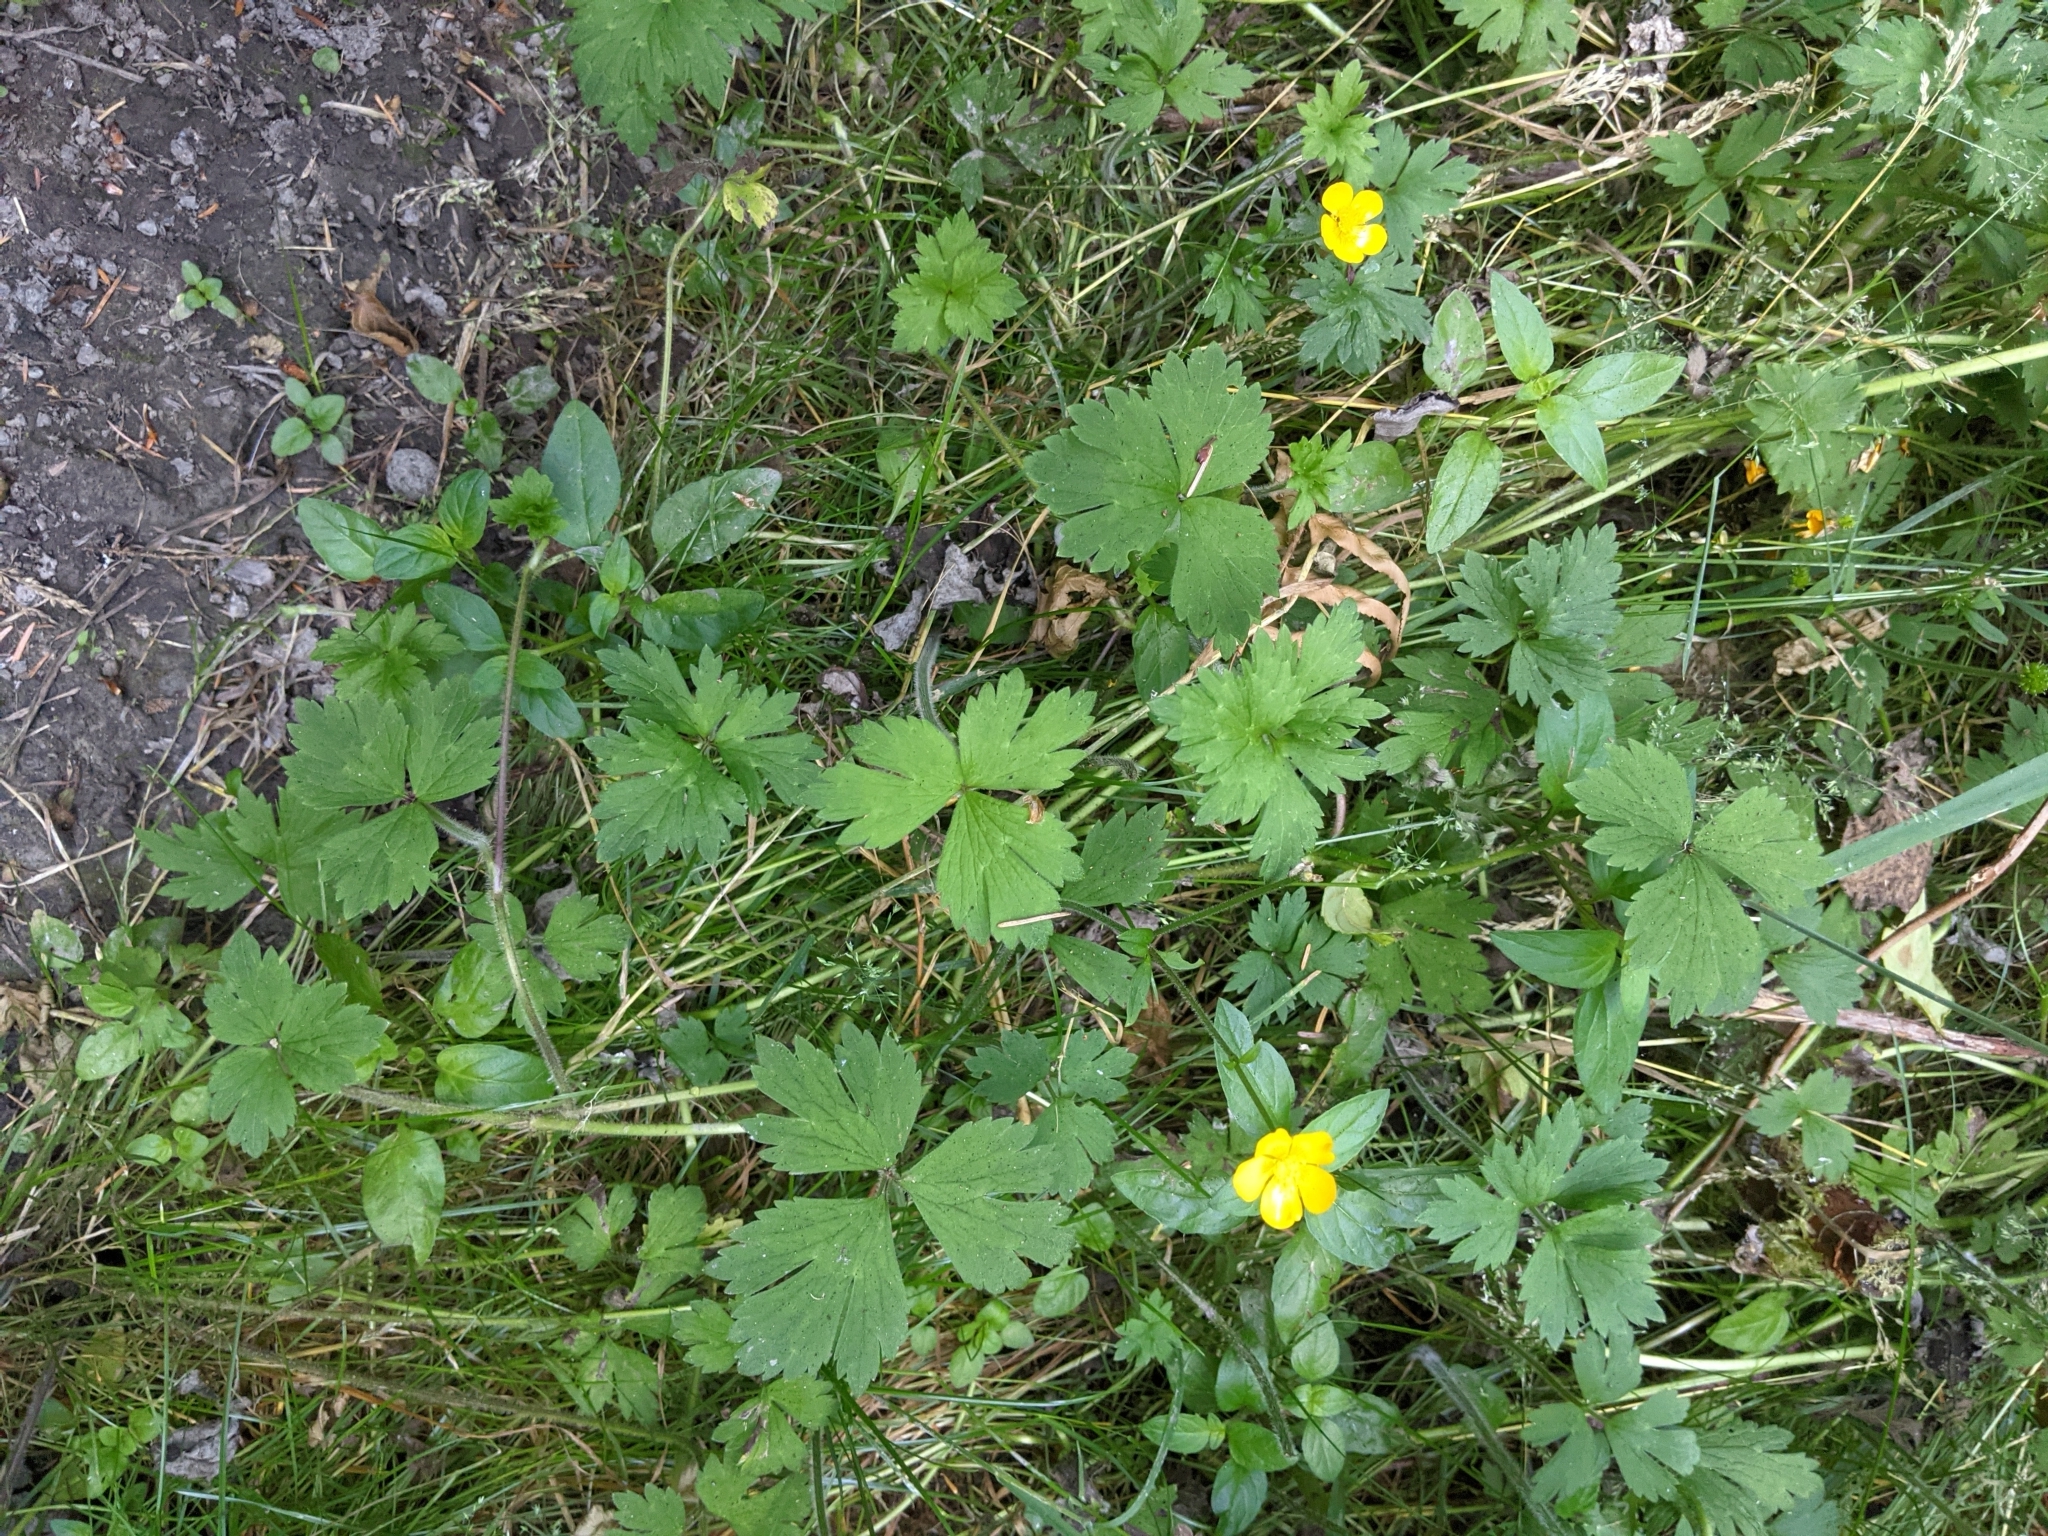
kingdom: Plantae
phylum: Tracheophyta
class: Magnoliopsida
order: Ranunculales
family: Ranunculaceae
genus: Ranunculus
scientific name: Ranunculus repens
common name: Creeping buttercup
